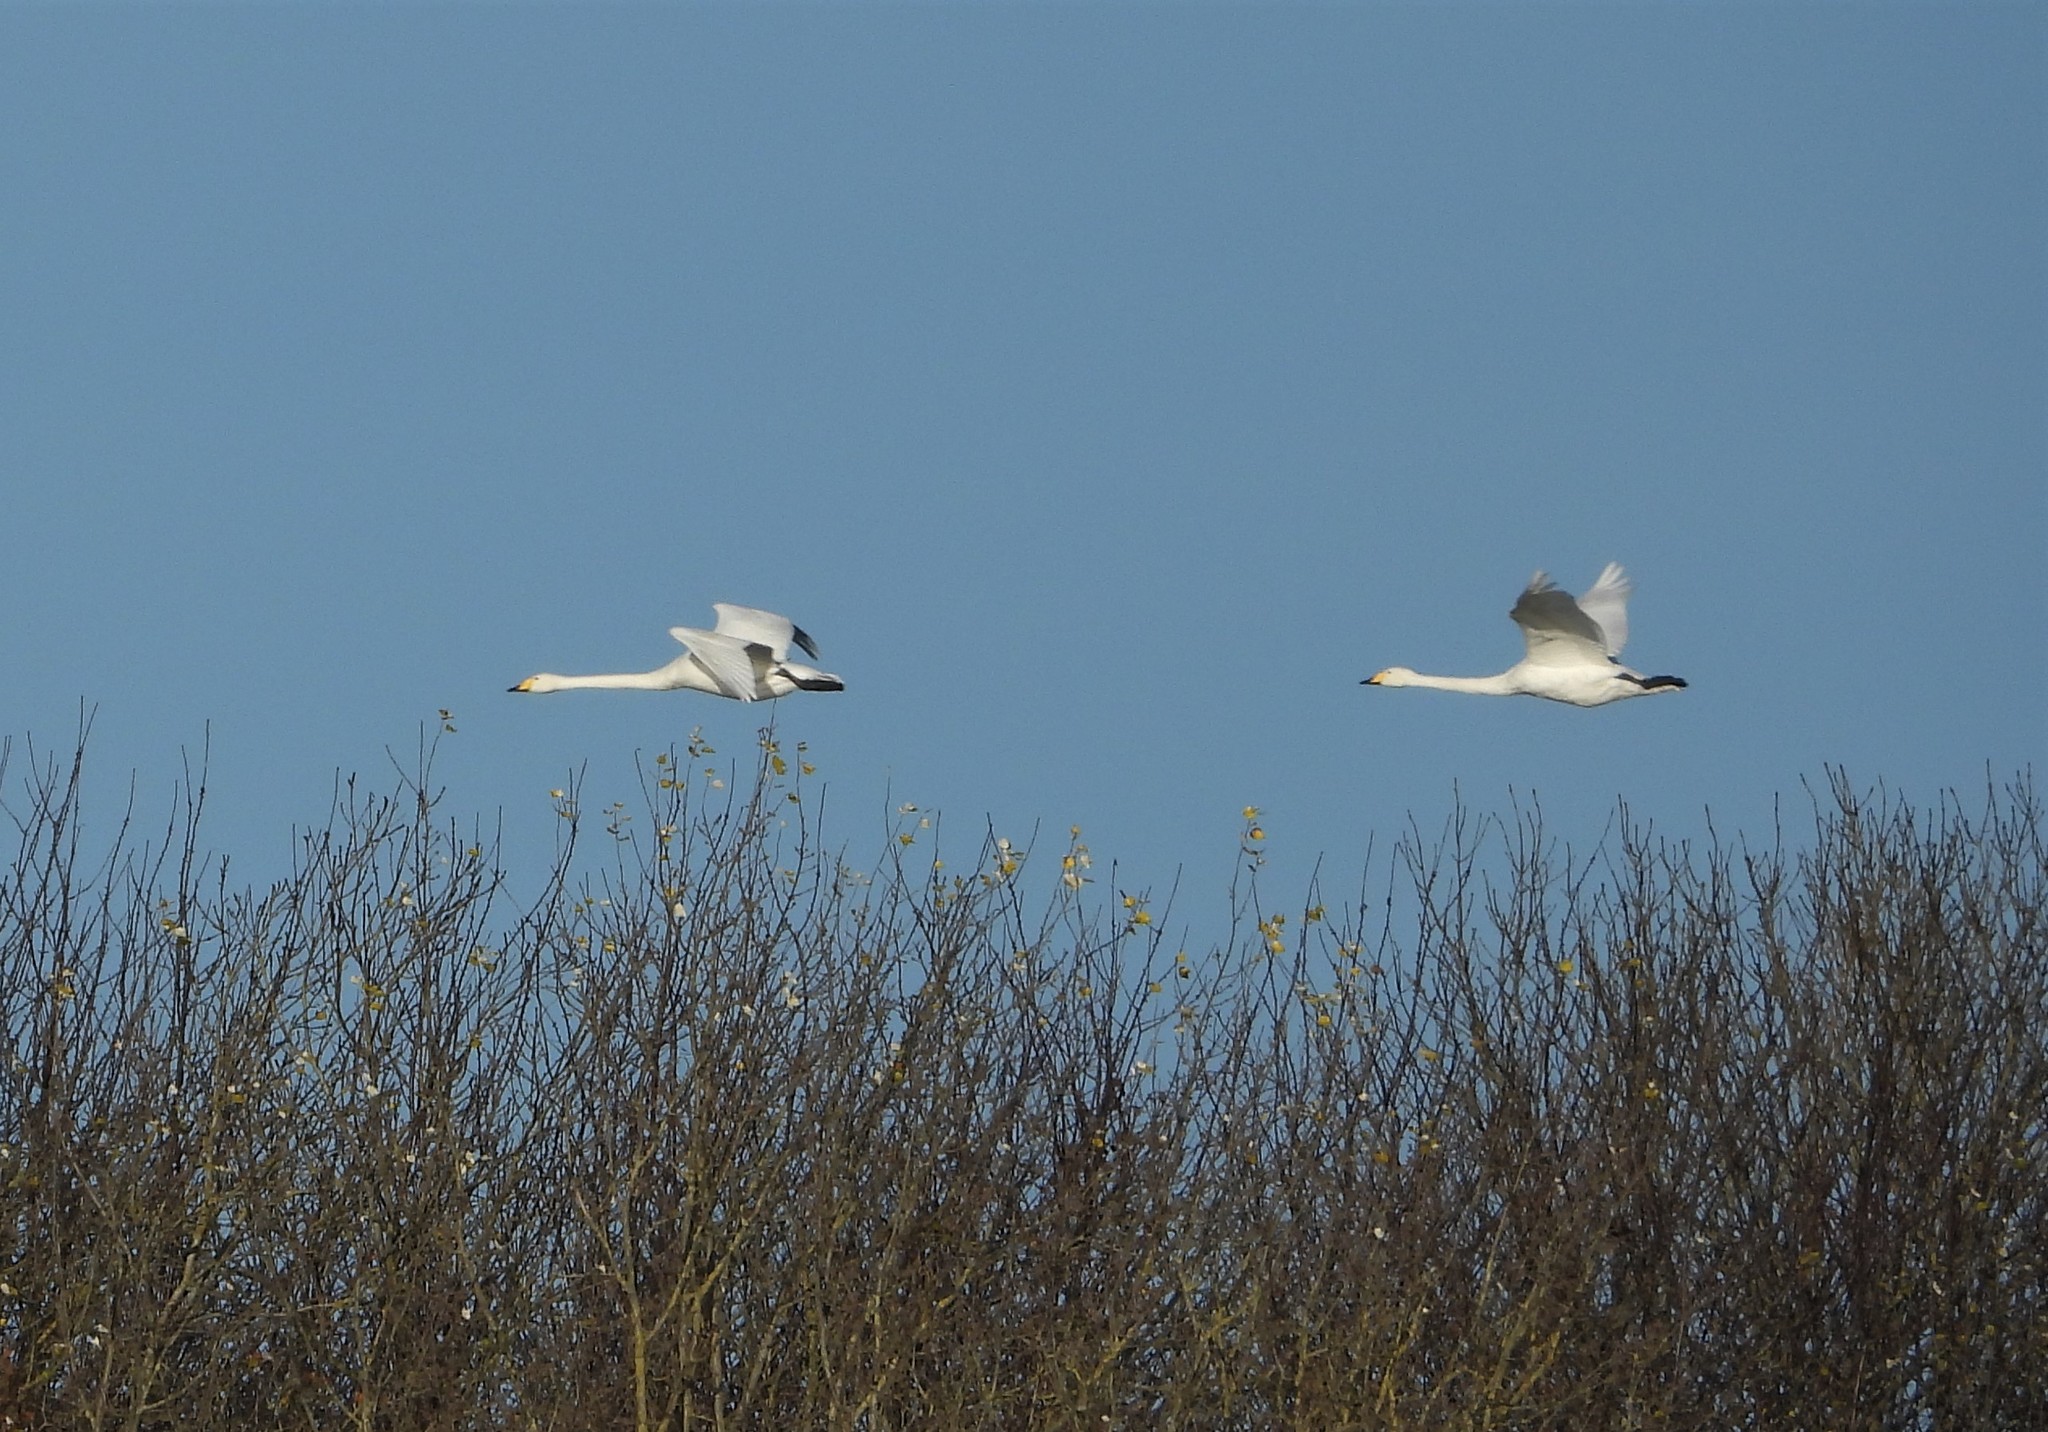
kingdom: Animalia
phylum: Chordata
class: Aves
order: Anseriformes
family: Anatidae
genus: Cygnus
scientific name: Cygnus cygnus
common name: Whooper swan
